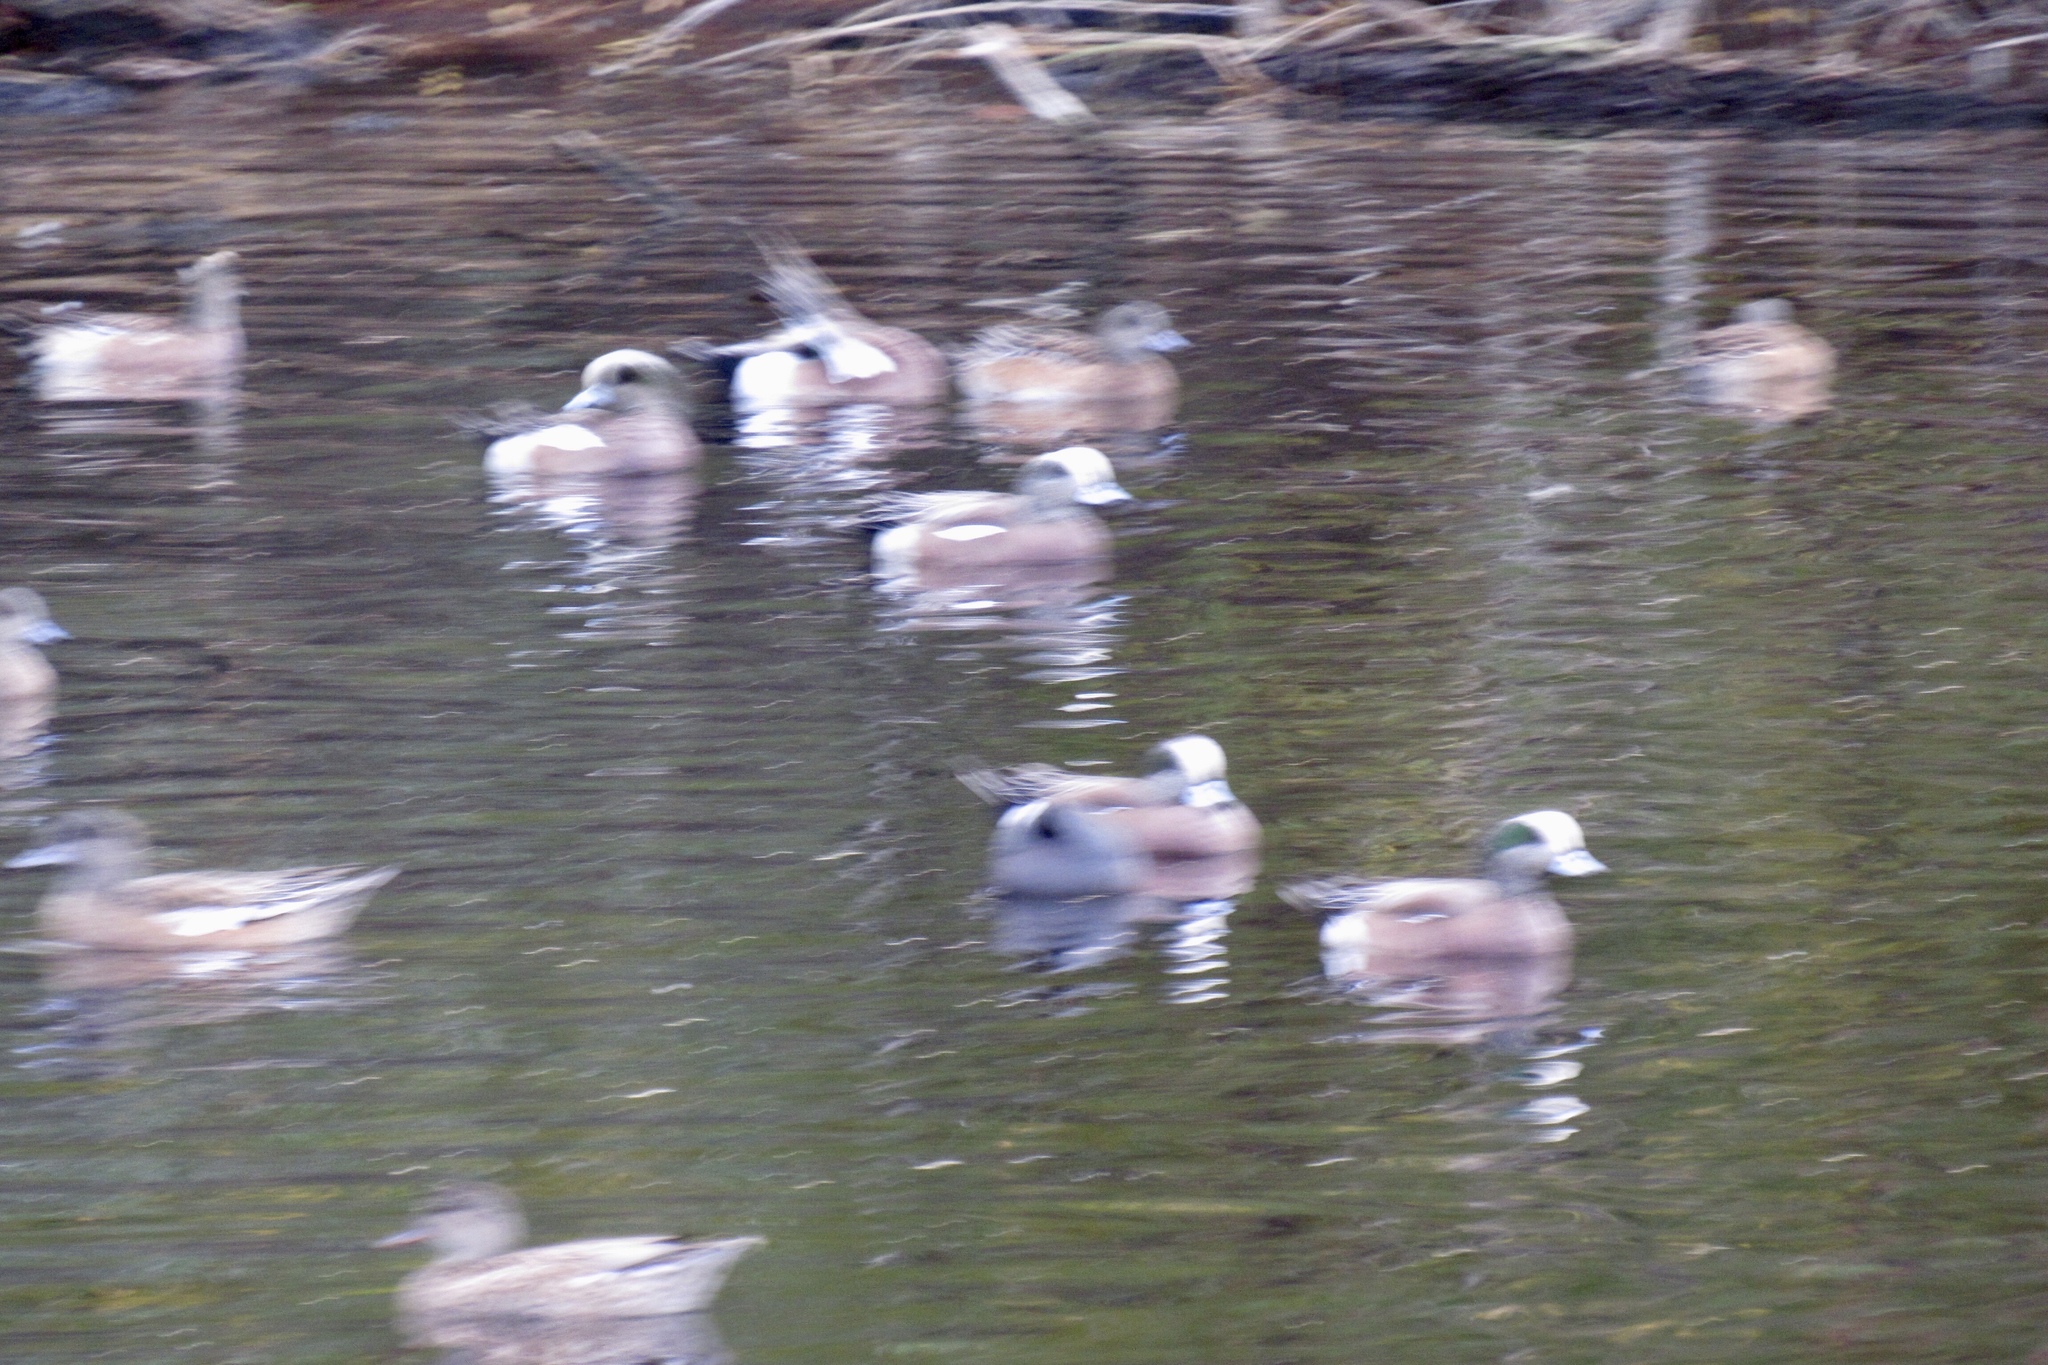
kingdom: Animalia
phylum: Chordata
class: Aves
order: Anseriformes
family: Anatidae
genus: Mareca
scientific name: Mareca americana
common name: American wigeon
